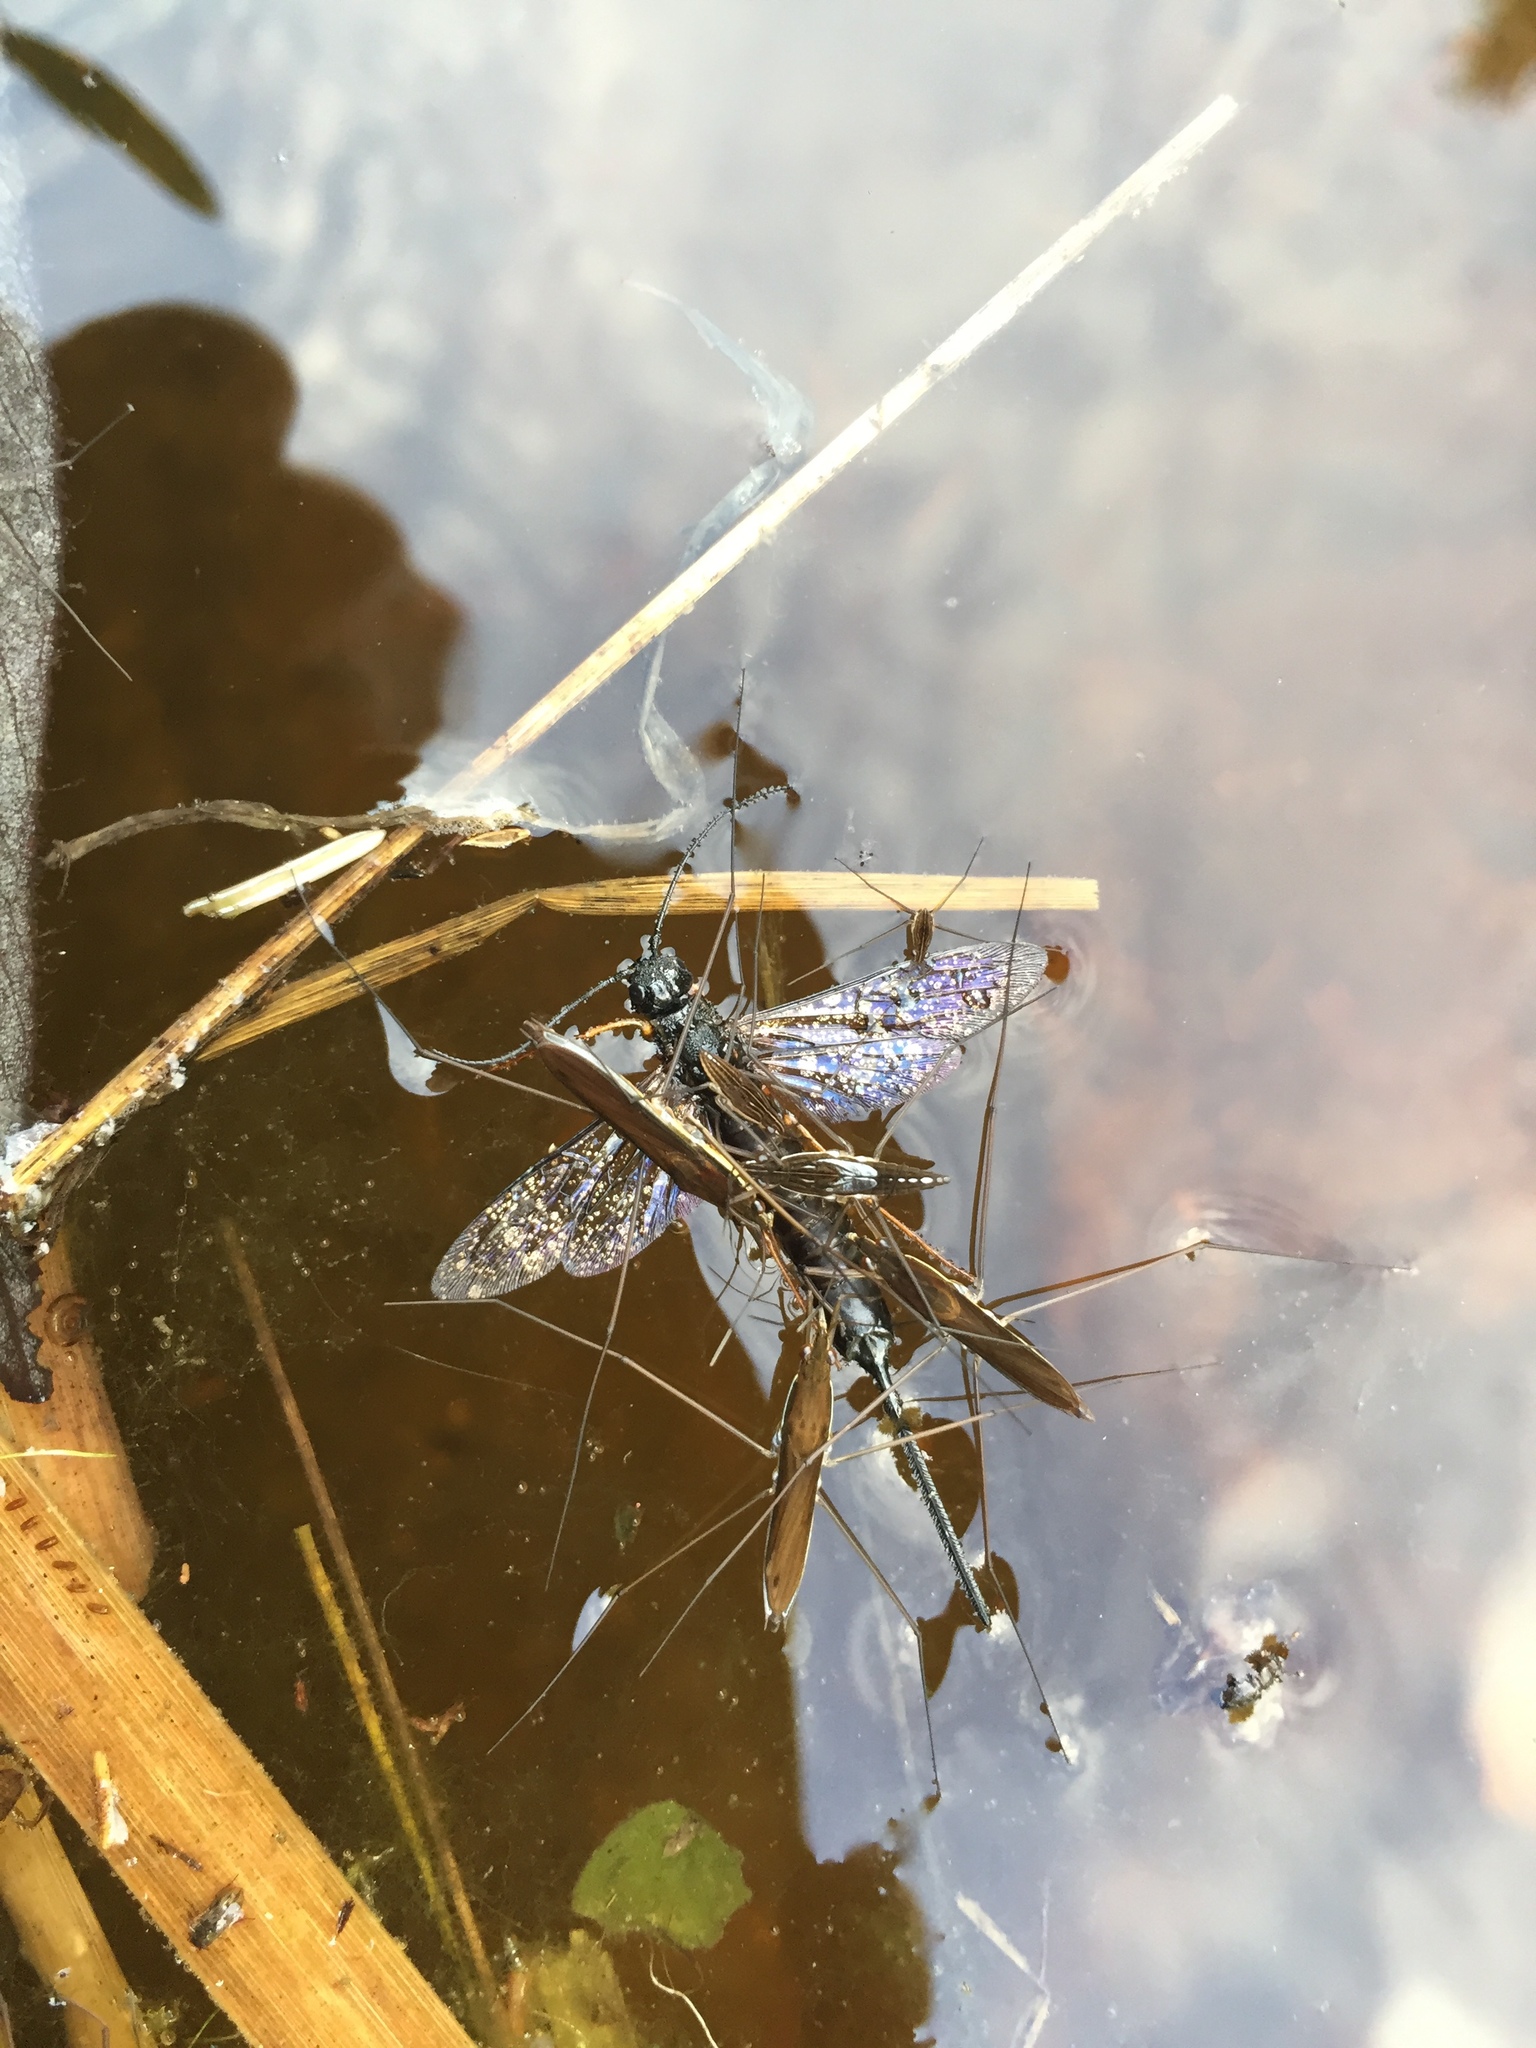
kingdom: Animalia
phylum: Arthropoda
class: Insecta
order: Hemiptera
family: Gerridae
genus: Limnoporus
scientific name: Limnoporus dissortis
